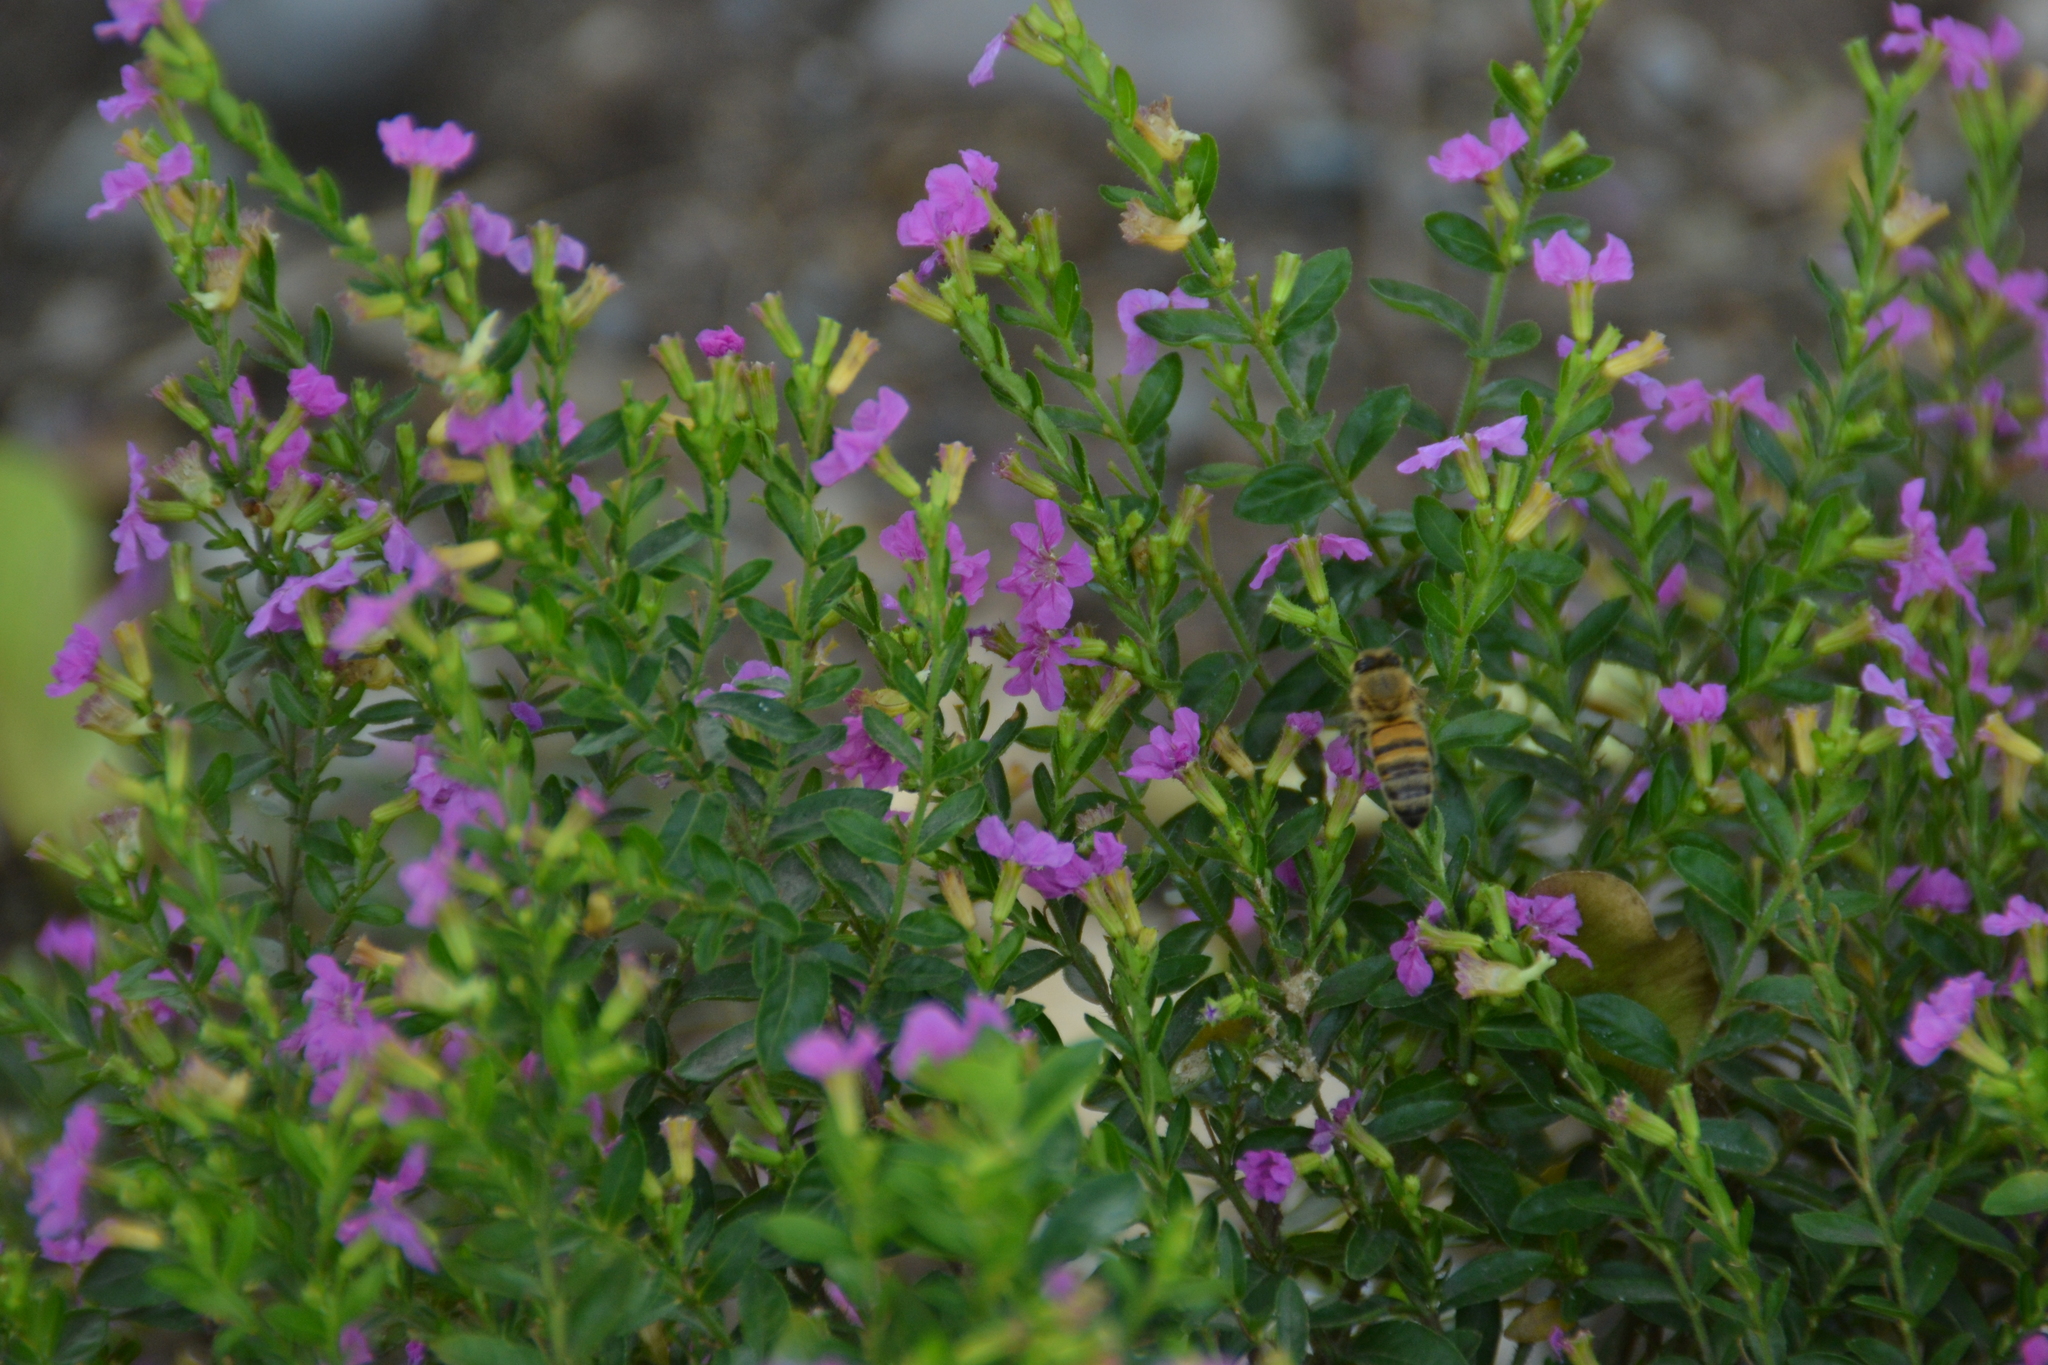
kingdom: Animalia
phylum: Arthropoda
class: Insecta
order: Hymenoptera
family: Apidae
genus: Apis
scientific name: Apis mellifera
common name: Honey bee
